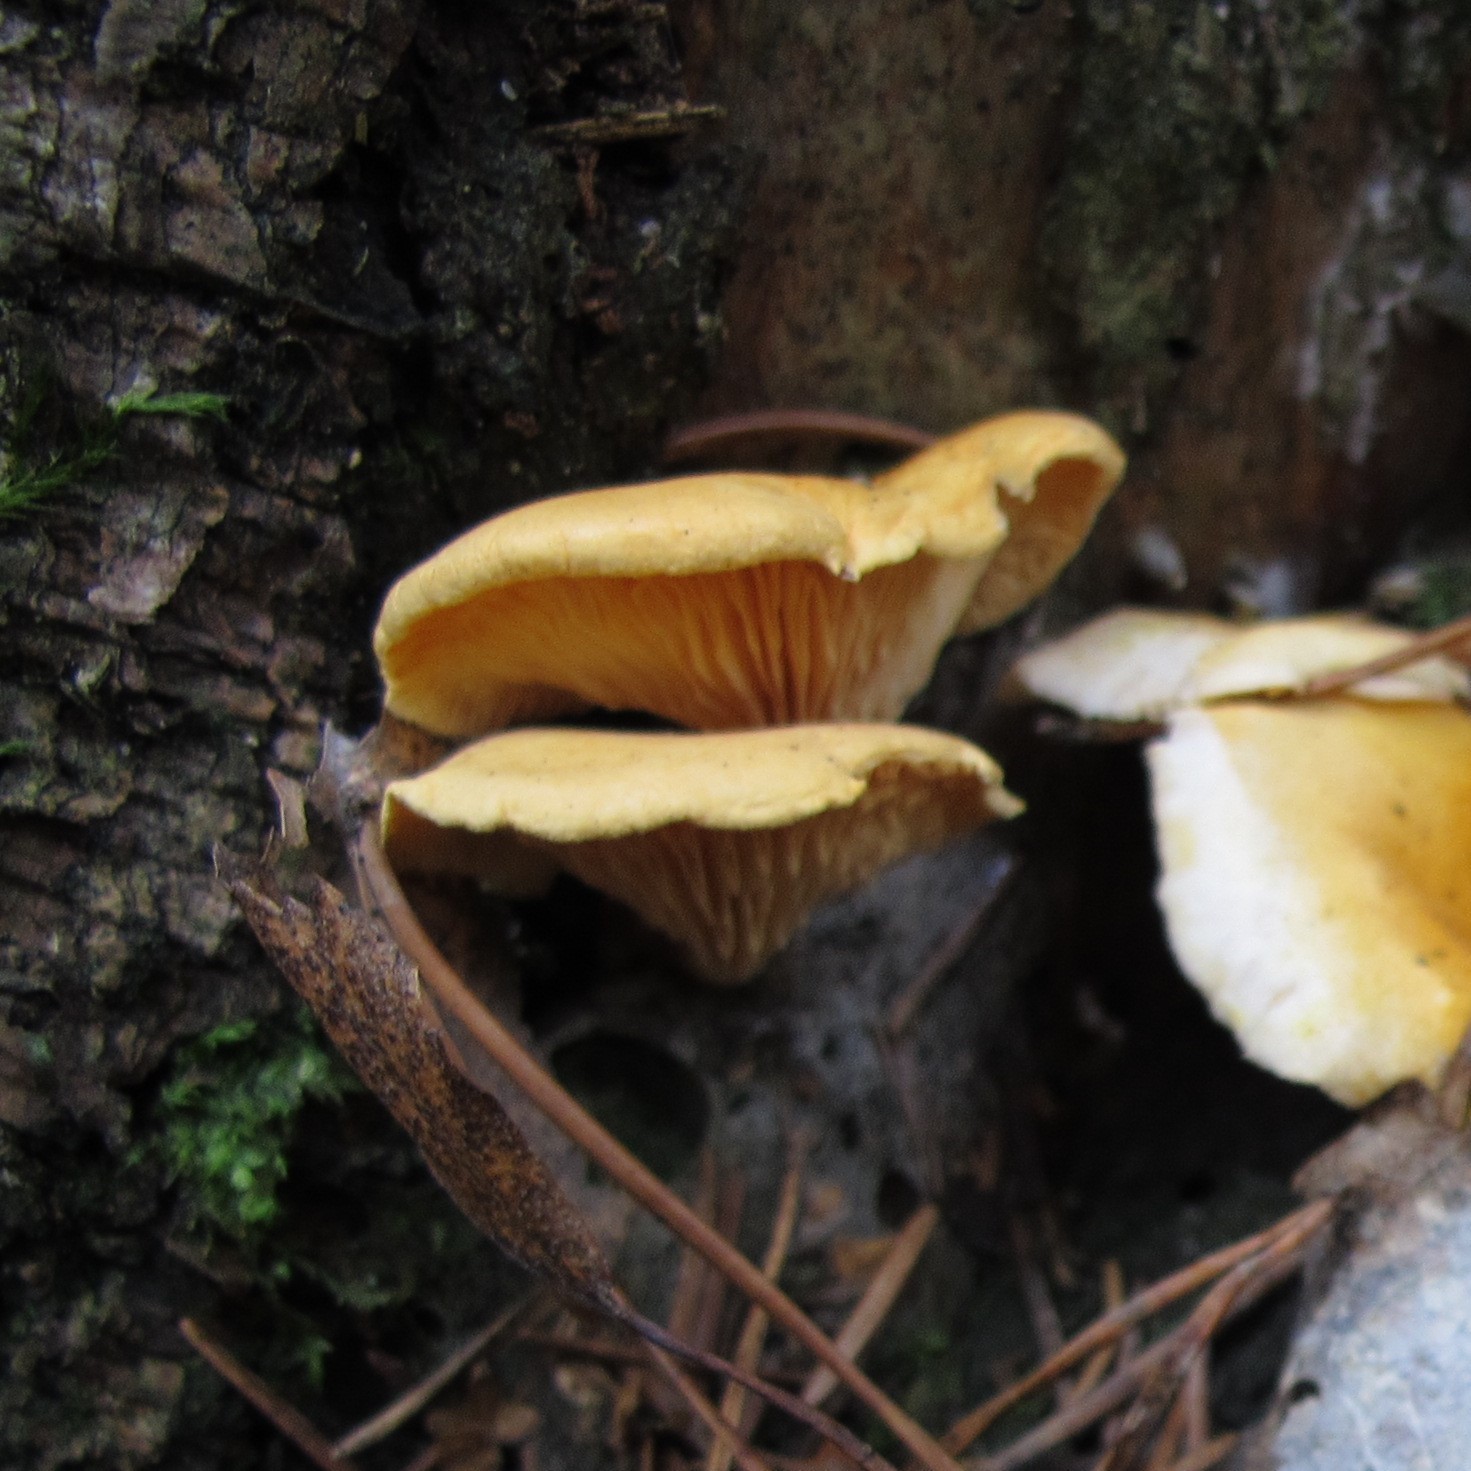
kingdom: Fungi
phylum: Basidiomycota
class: Agaricomycetes
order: Boletales
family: Hygrophoropsidaceae
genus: Hygrophoropsis
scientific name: Hygrophoropsis aurantiaca
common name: False chanterelle
